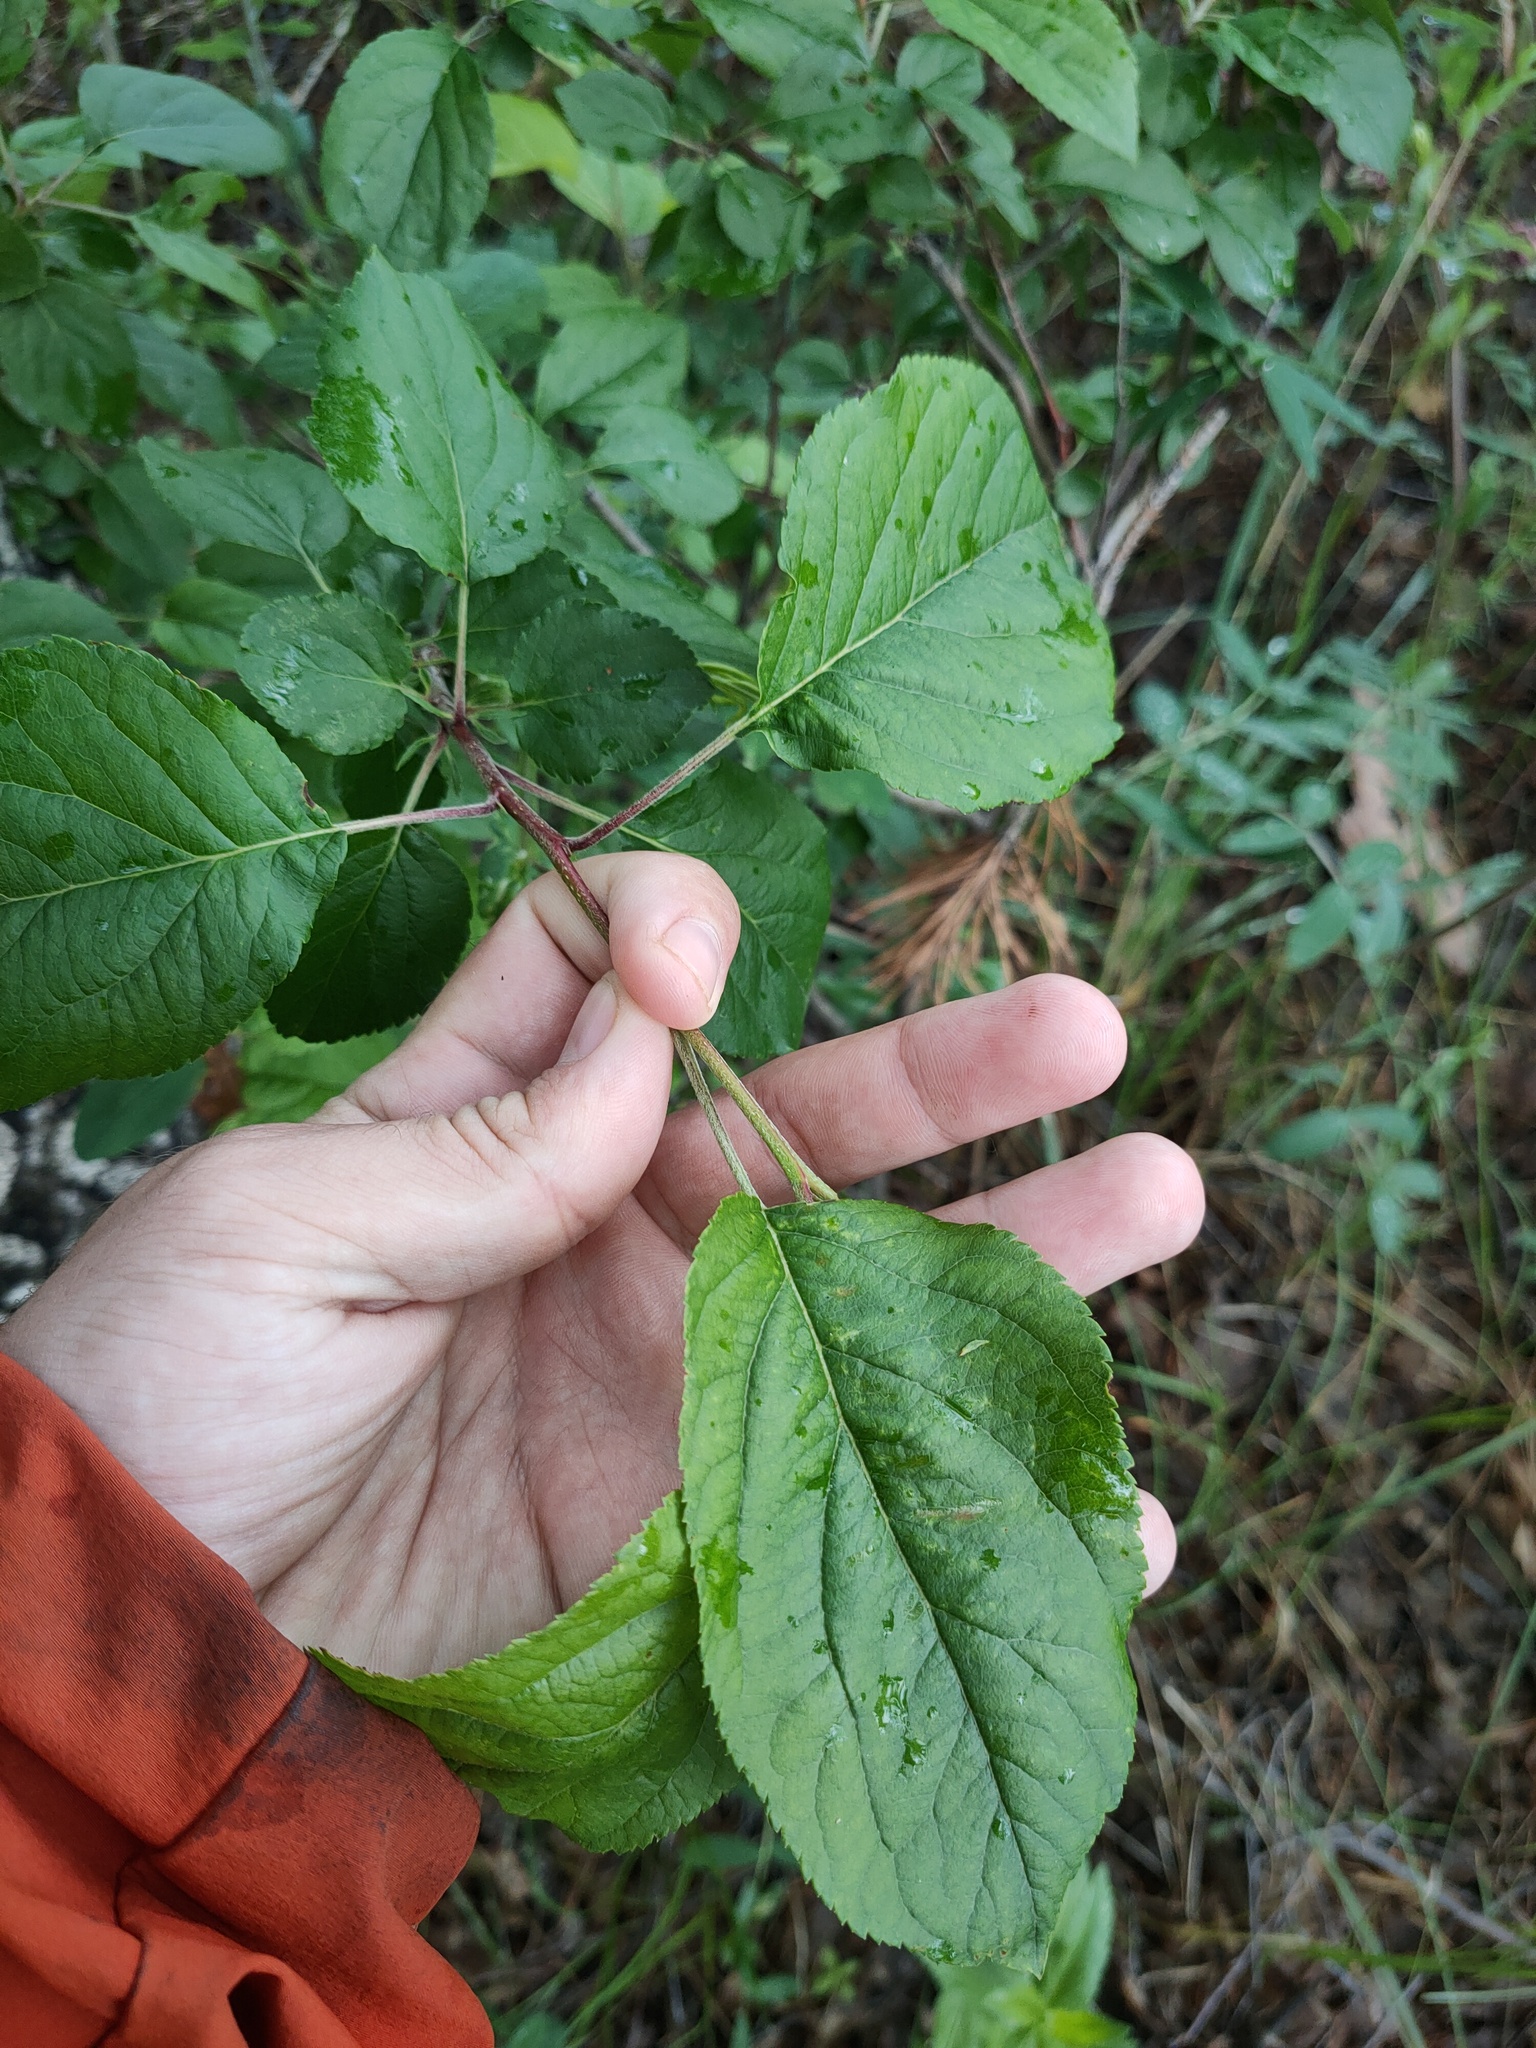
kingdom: Plantae
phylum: Tracheophyta
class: Magnoliopsida
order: Rosales
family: Rosaceae
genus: Malus
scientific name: Malus
